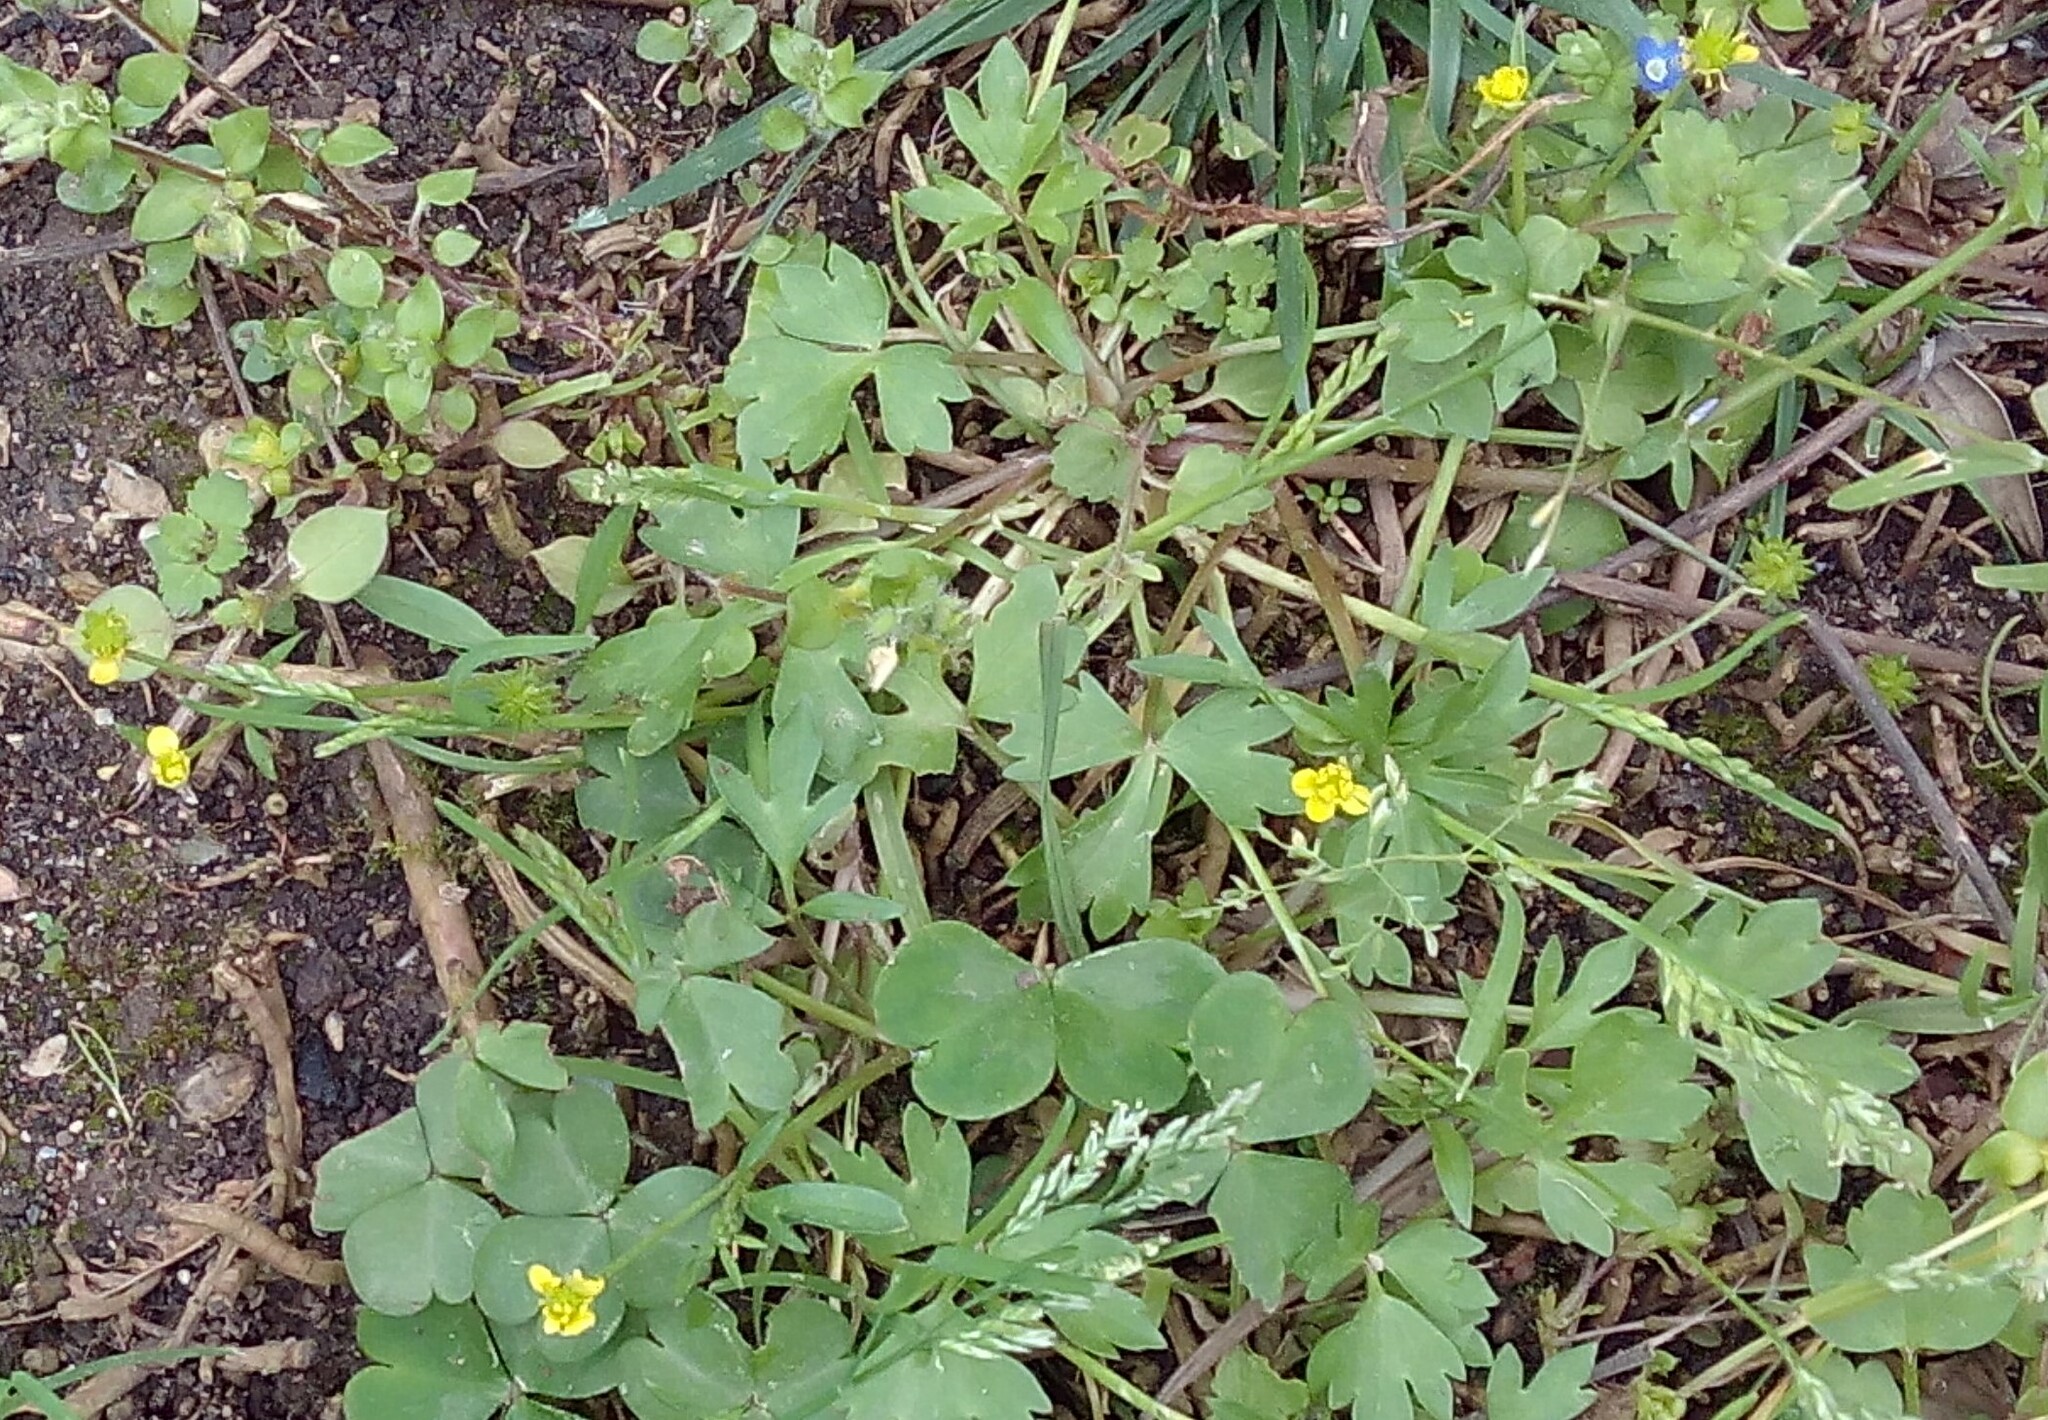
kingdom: Plantae
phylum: Tracheophyta
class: Magnoliopsida
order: Ranunculales
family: Ranunculaceae
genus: Ranunculus
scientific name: Ranunculus muricatus
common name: Rough-fruited buttercup
